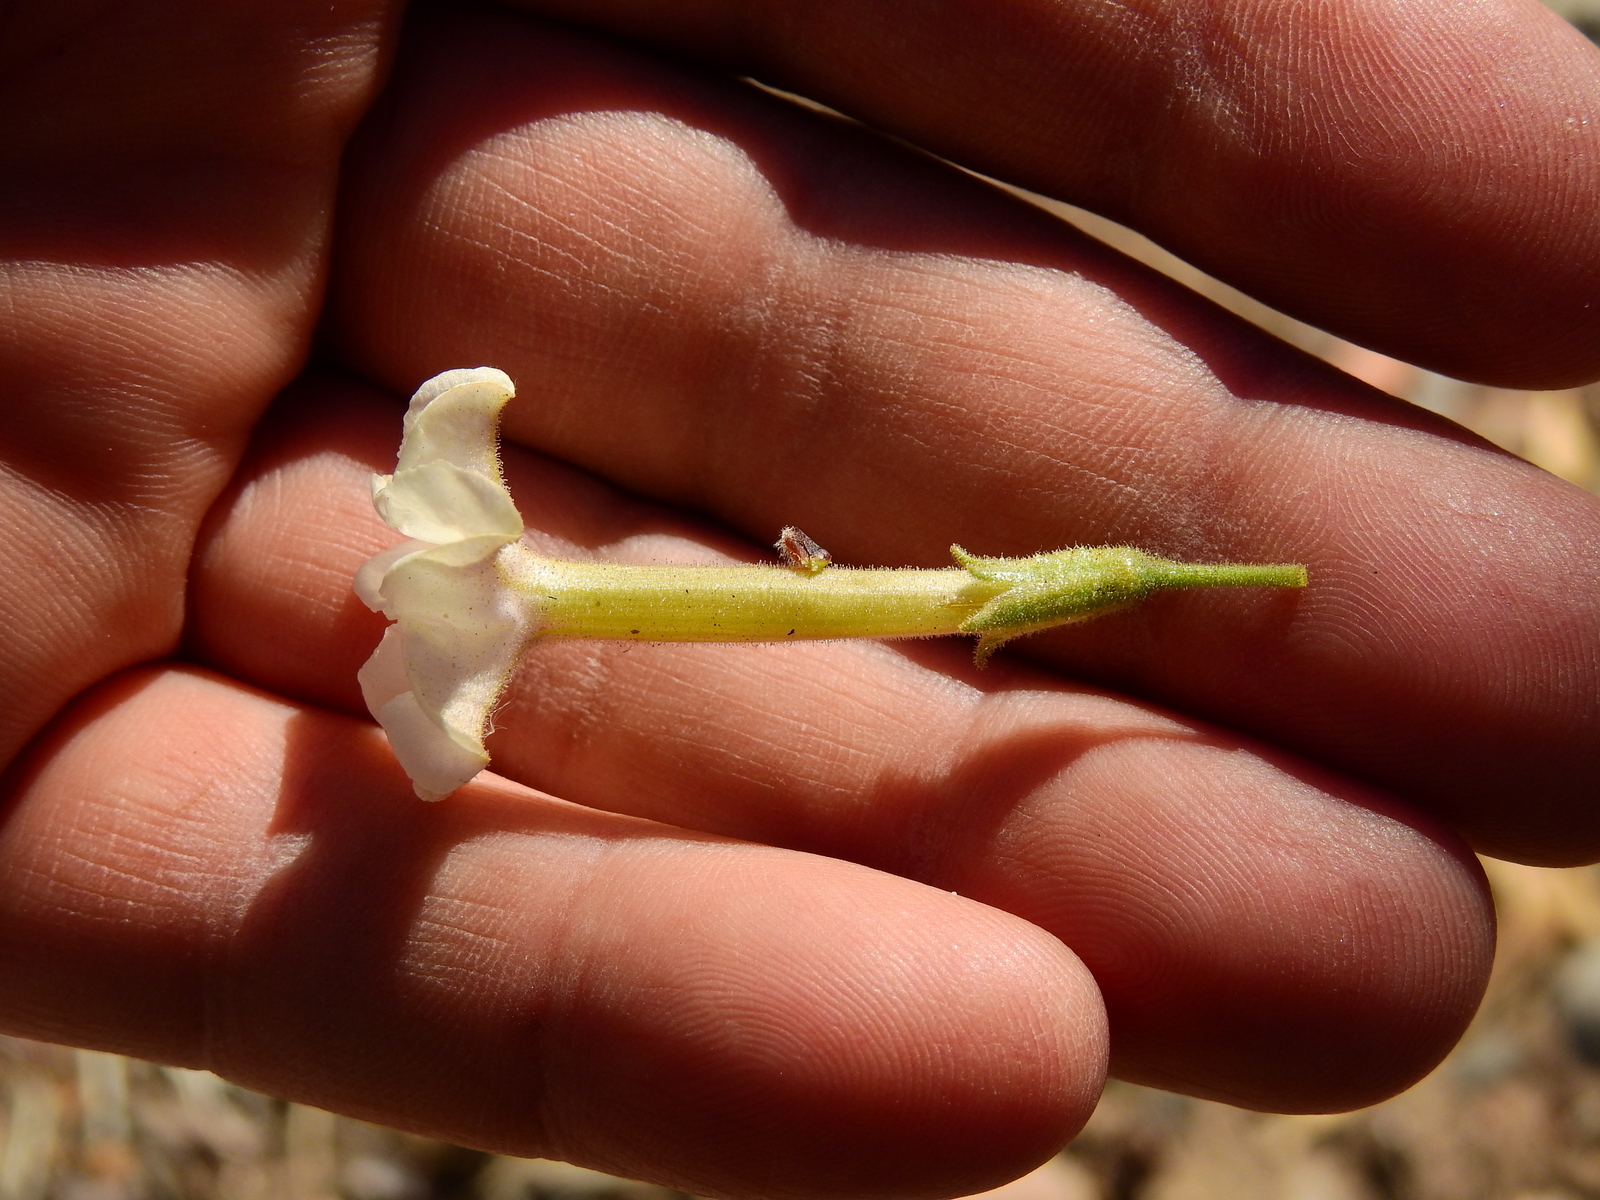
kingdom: Plantae
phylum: Tracheophyta
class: Magnoliopsida
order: Solanales
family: Solanaceae
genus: Nicotiana
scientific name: Nicotiana noctiflora
